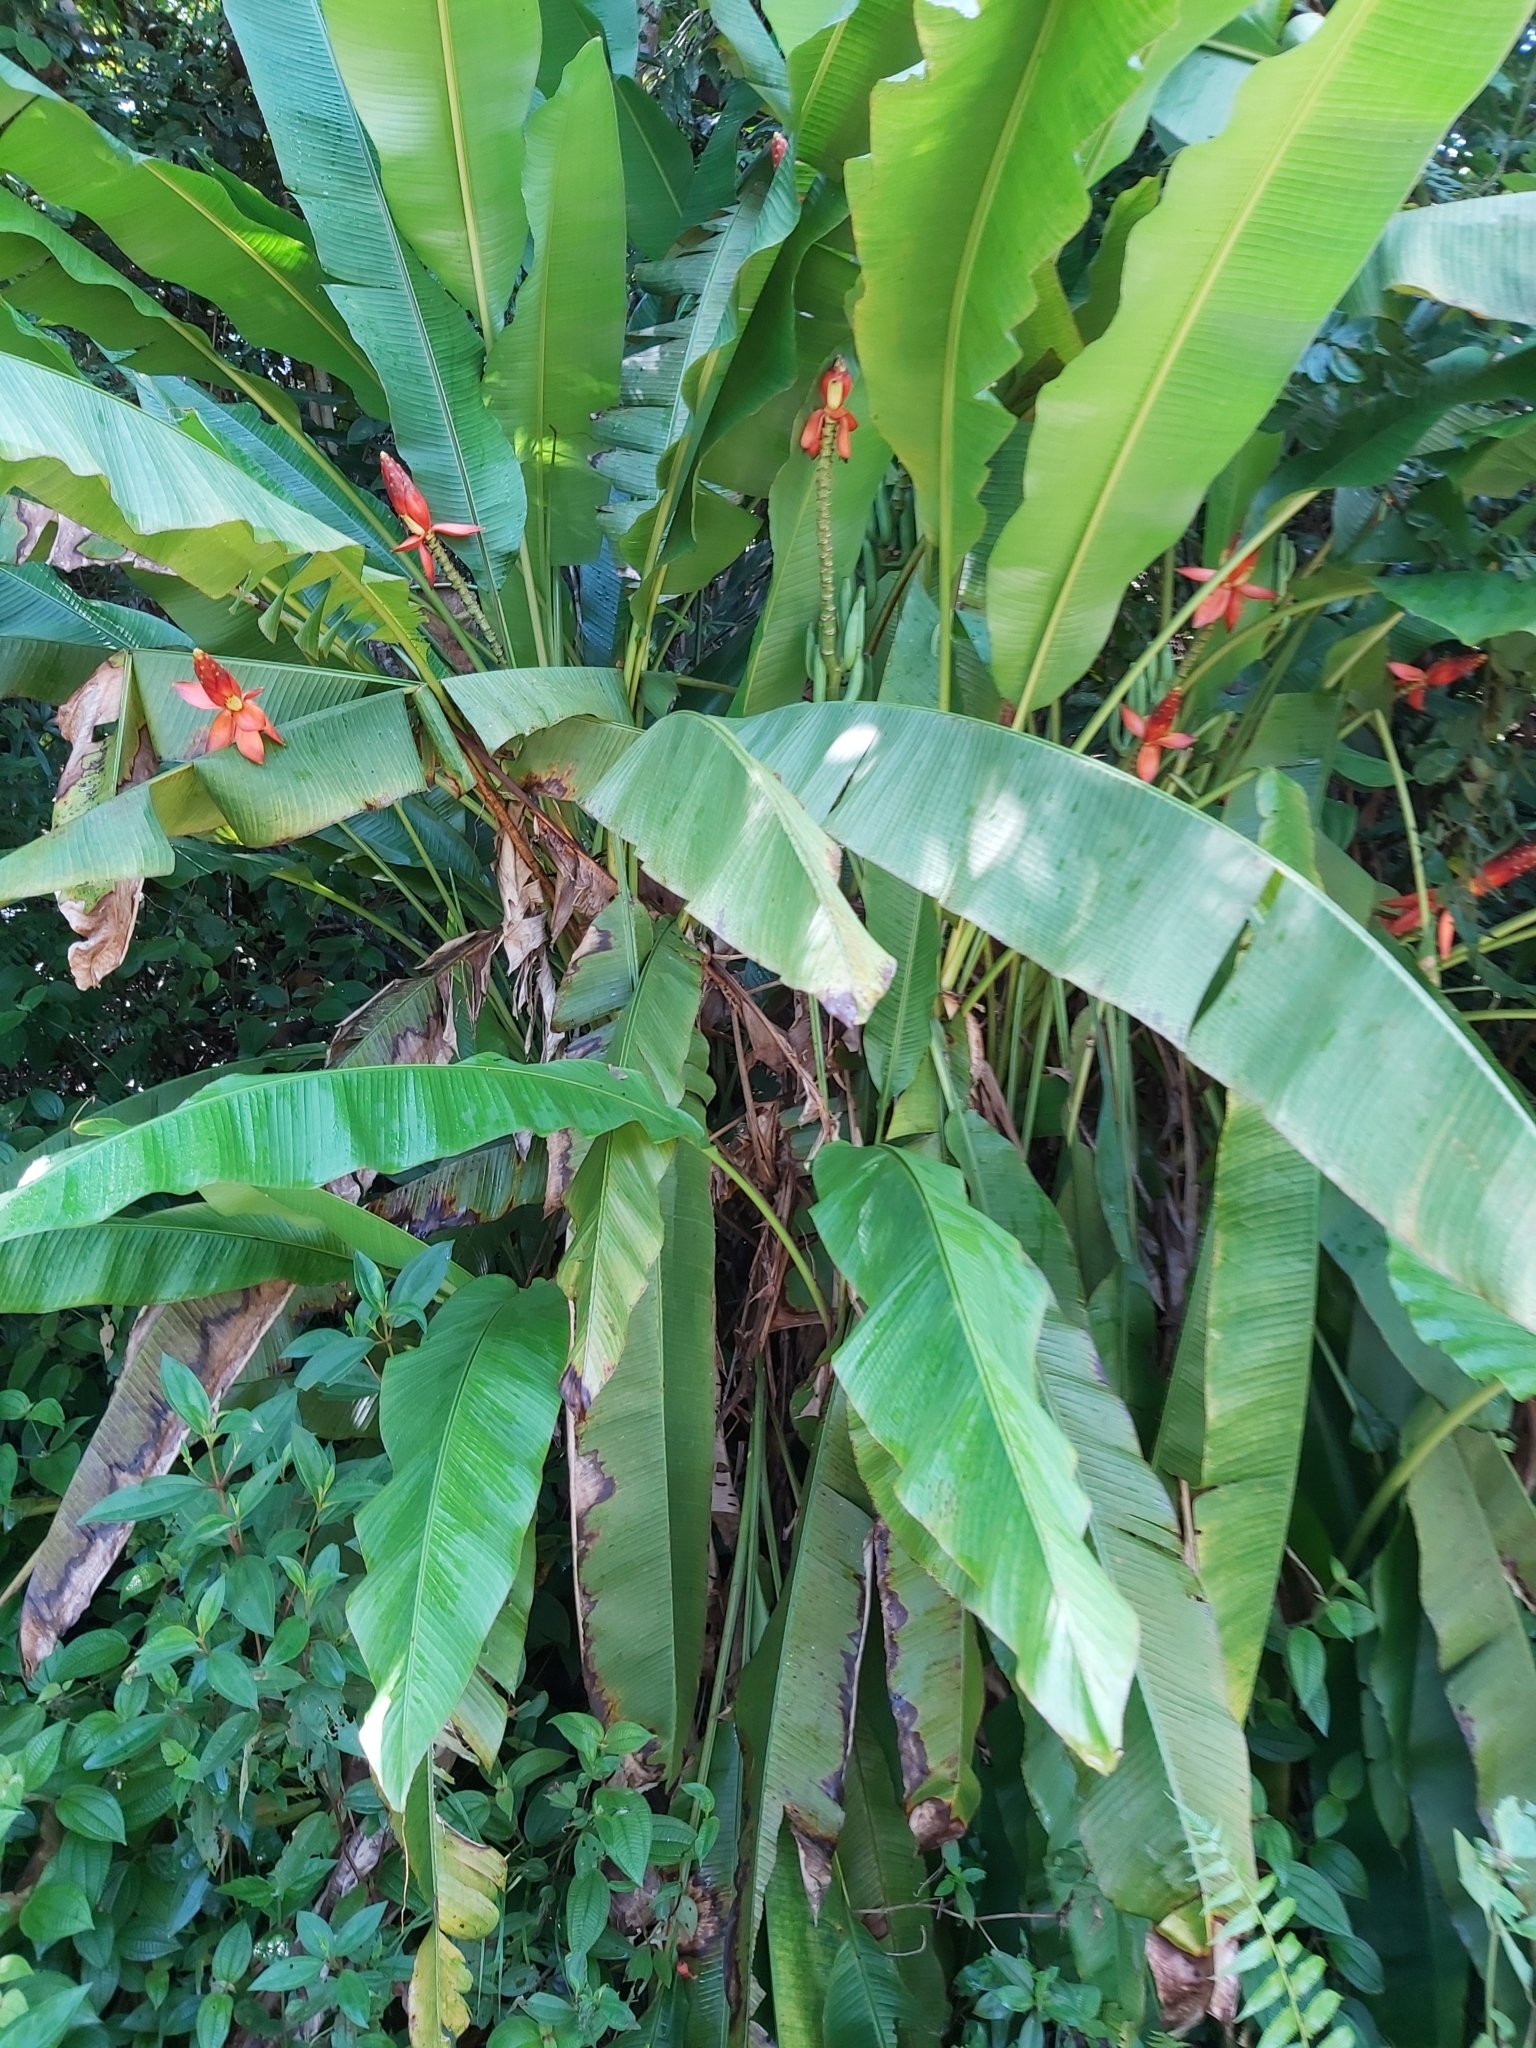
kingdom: Plantae
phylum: Tracheophyta
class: Liliopsida
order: Zingiberales
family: Musaceae
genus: Musa
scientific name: Musa beccarii
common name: Pisang tajak
